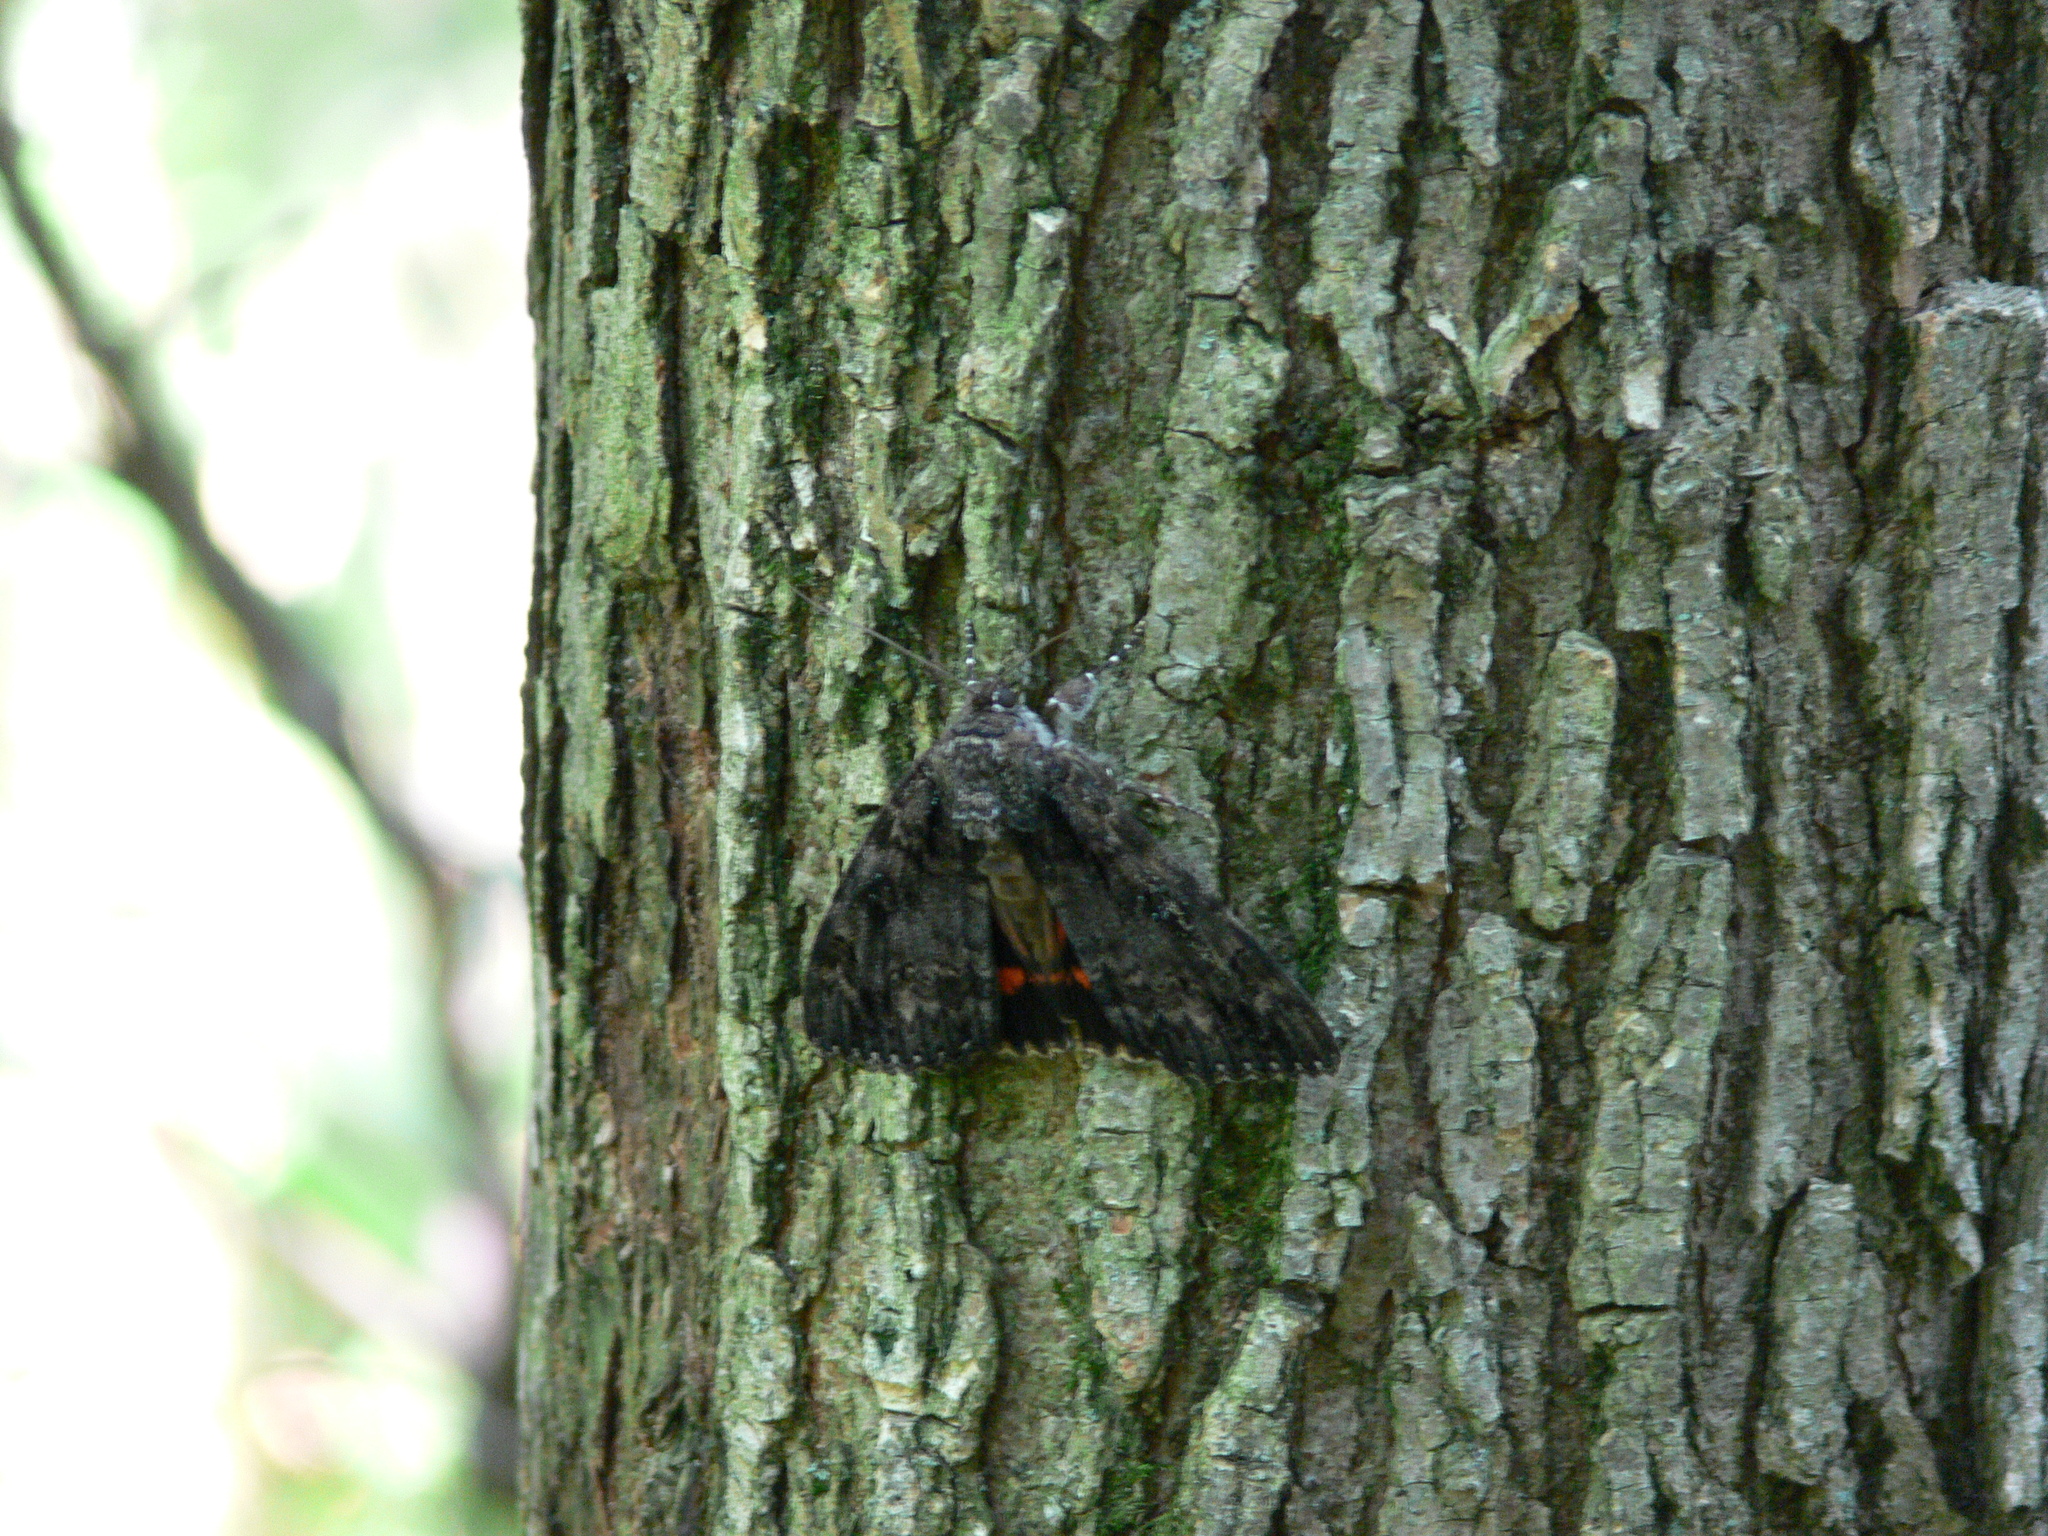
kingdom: Animalia
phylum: Arthropoda
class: Insecta
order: Lepidoptera
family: Erebidae
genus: Catocala
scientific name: Catocala ilia
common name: Ilia underwing
